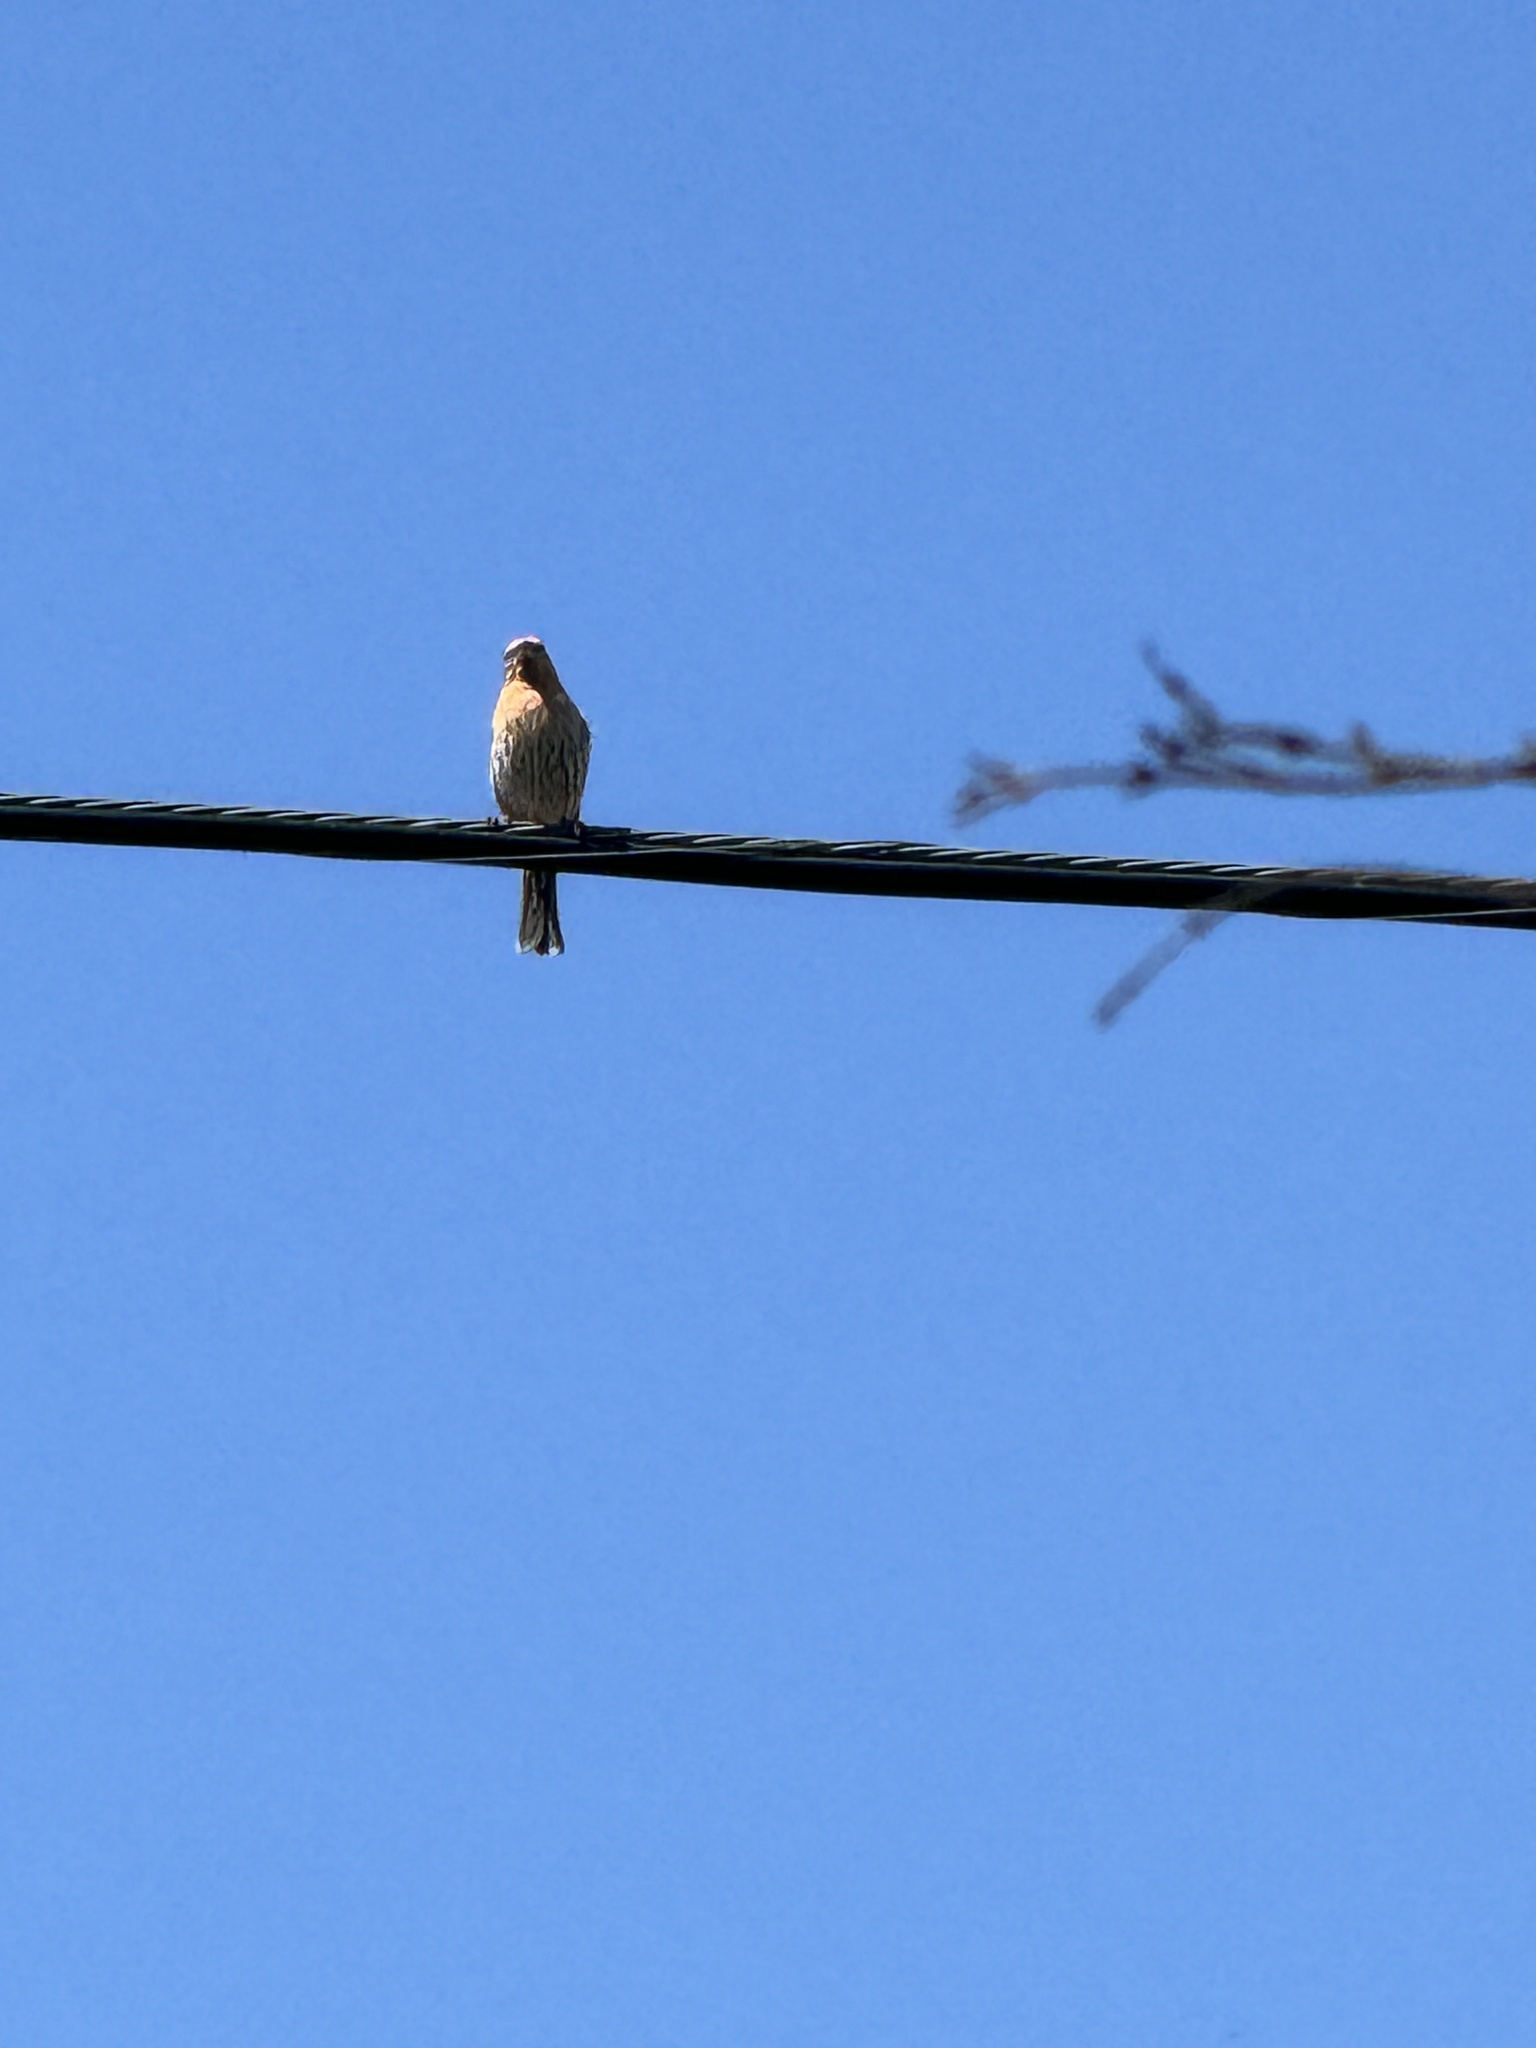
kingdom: Animalia
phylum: Chordata
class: Aves
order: Passeriformes
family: Fringillidae
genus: Haemorhous
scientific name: Haemorhous mexicanus
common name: House finch
